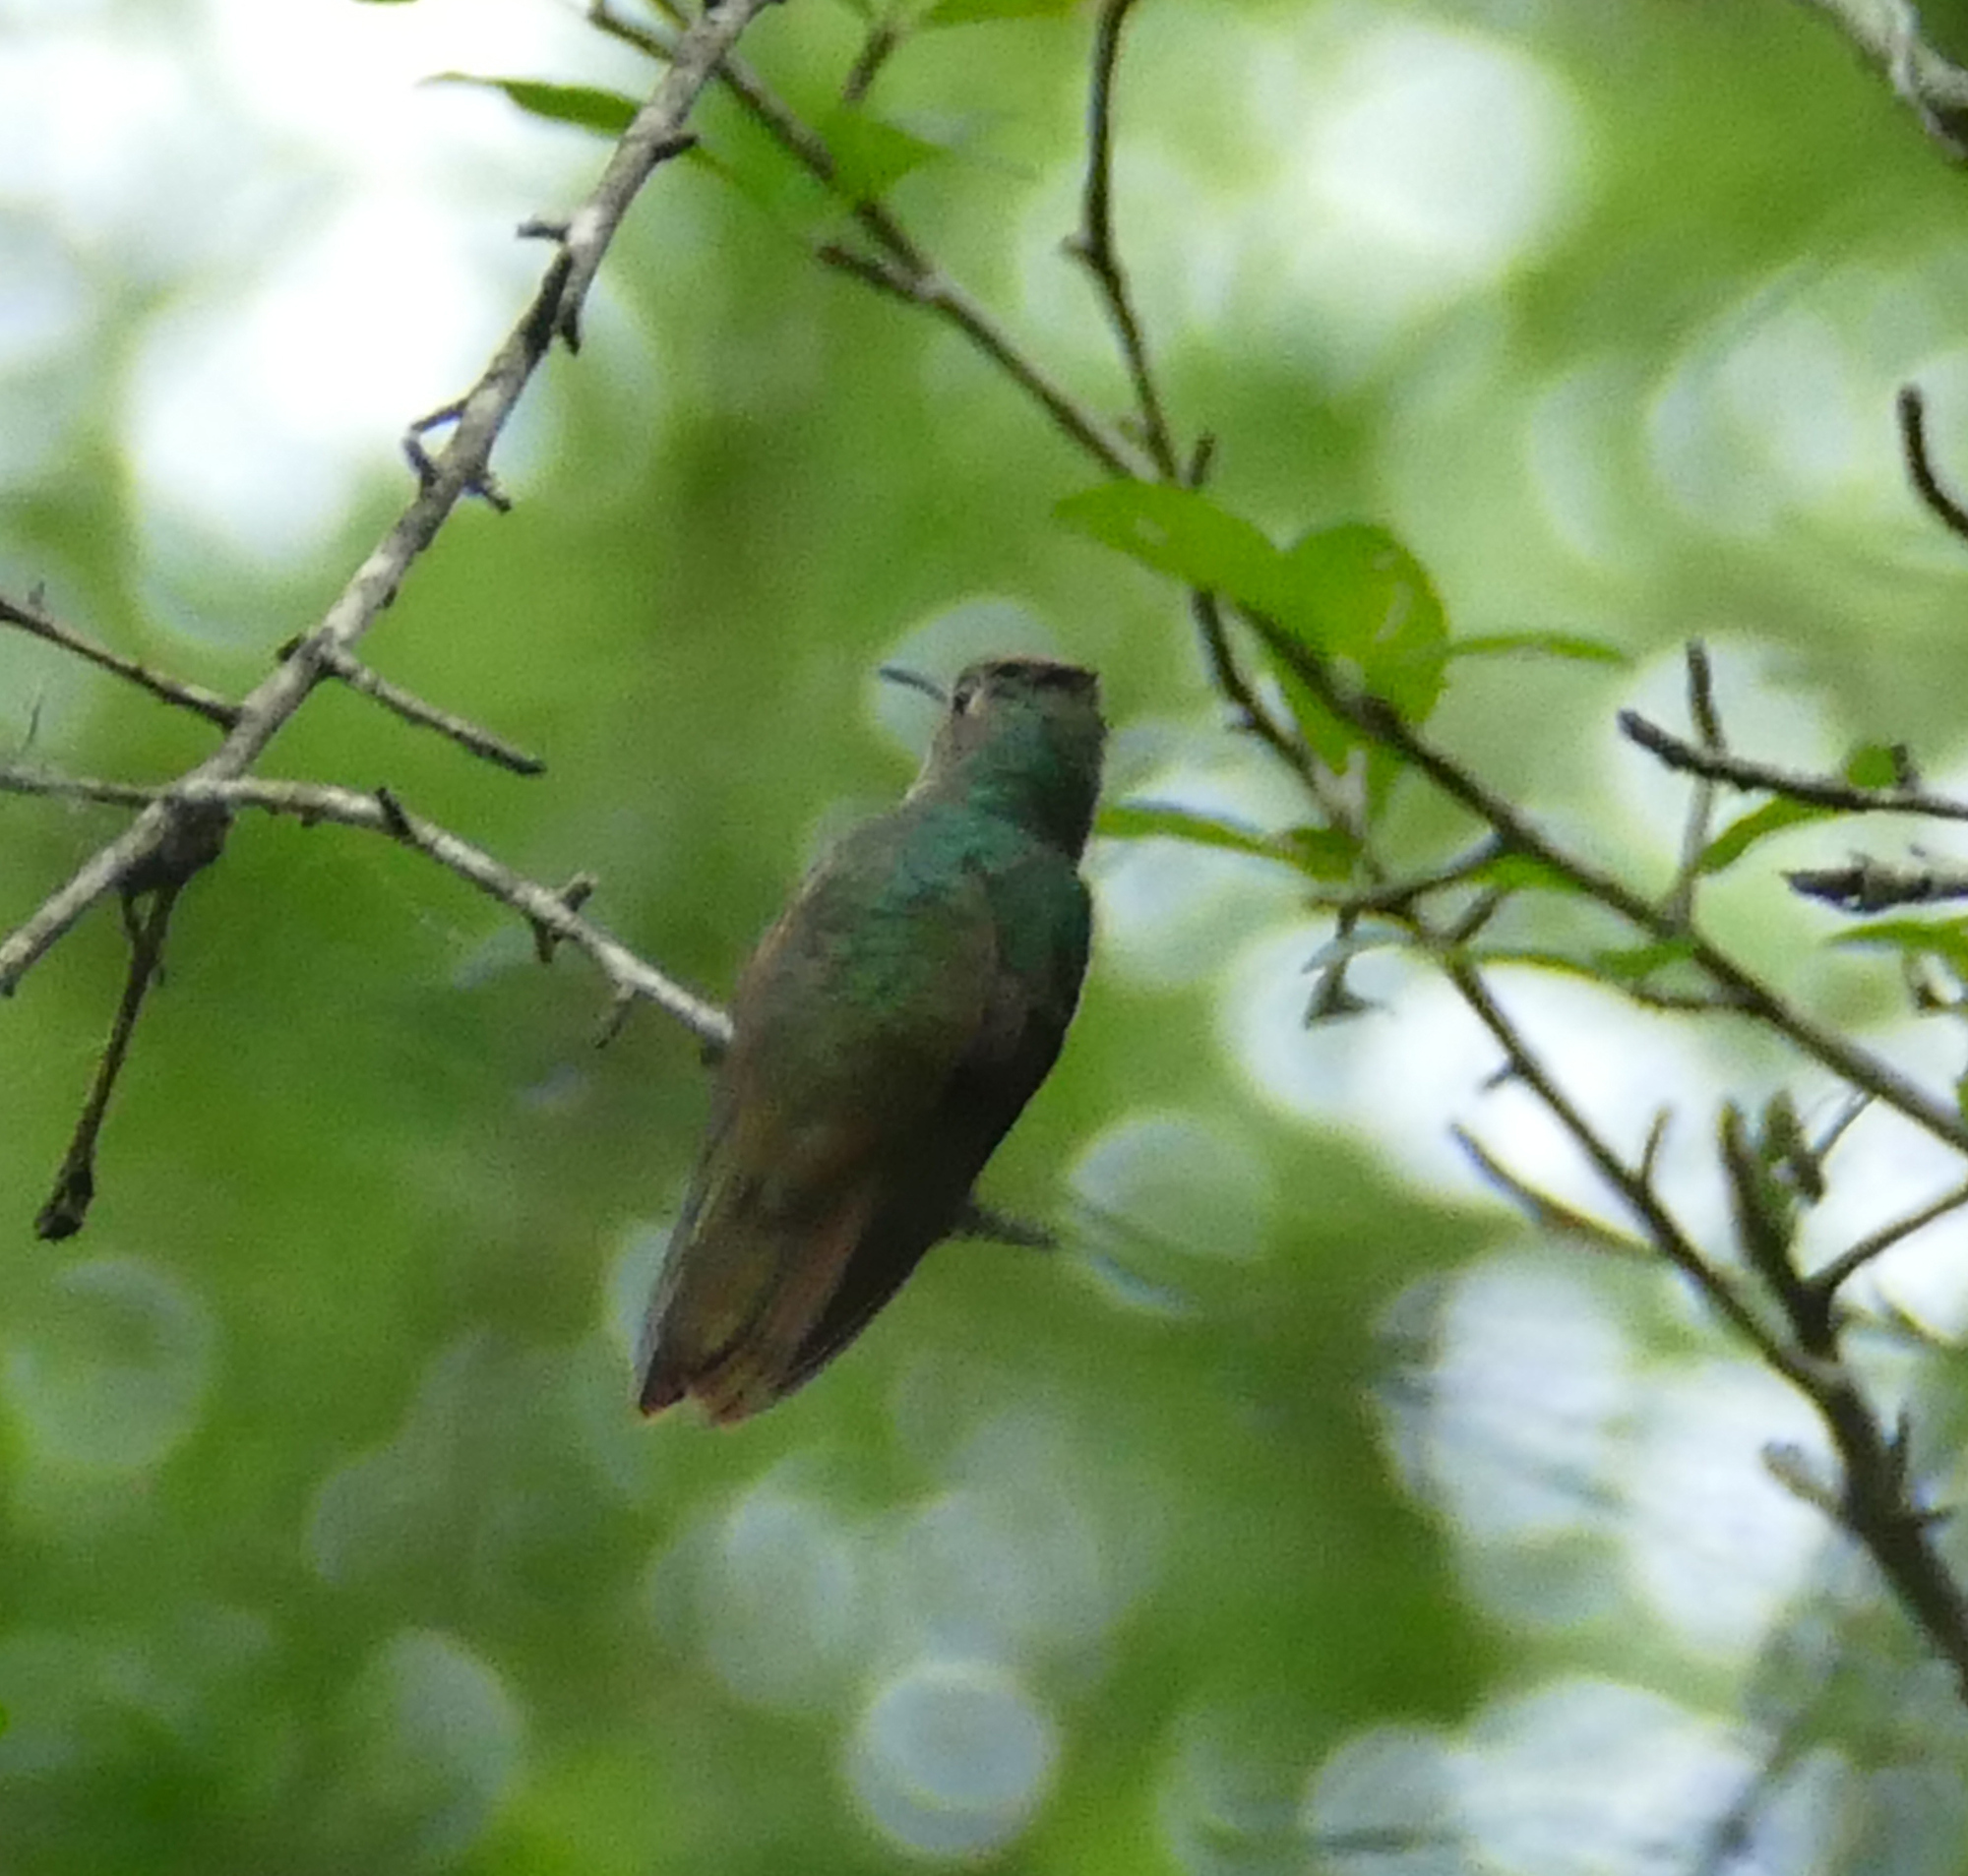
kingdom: Animalia
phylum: Chordata
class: Aves
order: Apodiformes
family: Trochilidae
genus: Amazilia
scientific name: Amazilia yucatanensis
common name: Buff-bellied hummingbird
